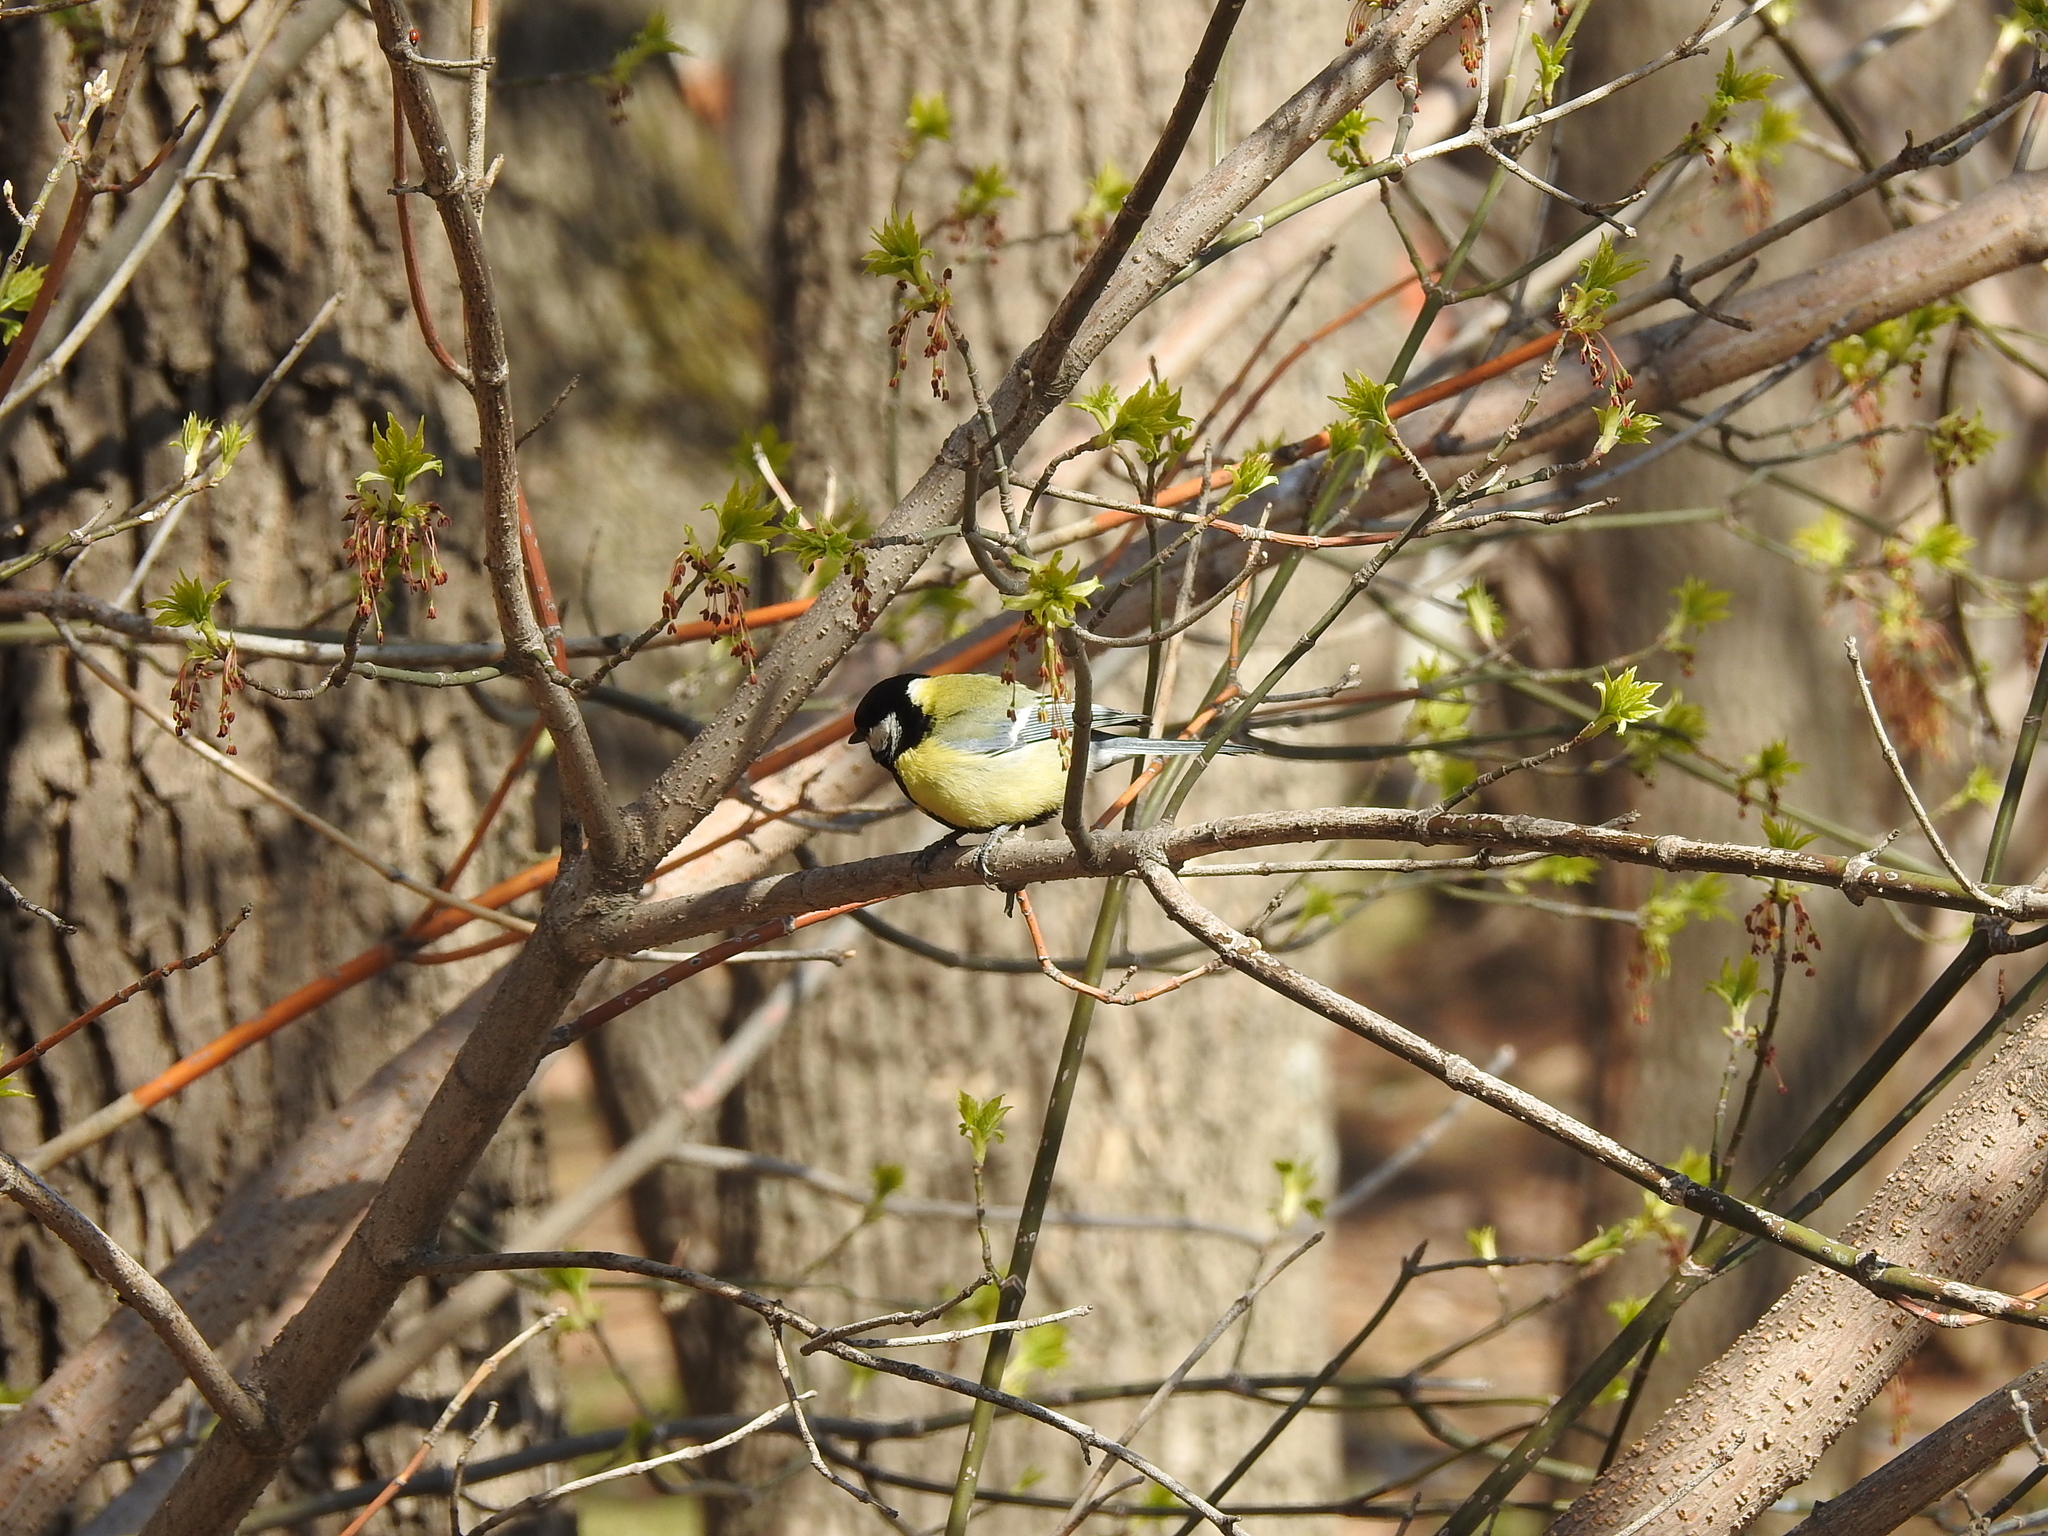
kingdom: Animalia
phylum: Chordata
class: Aves
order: Passeriformes
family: Paridae
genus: Parus
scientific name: Parus major
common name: Great tit
